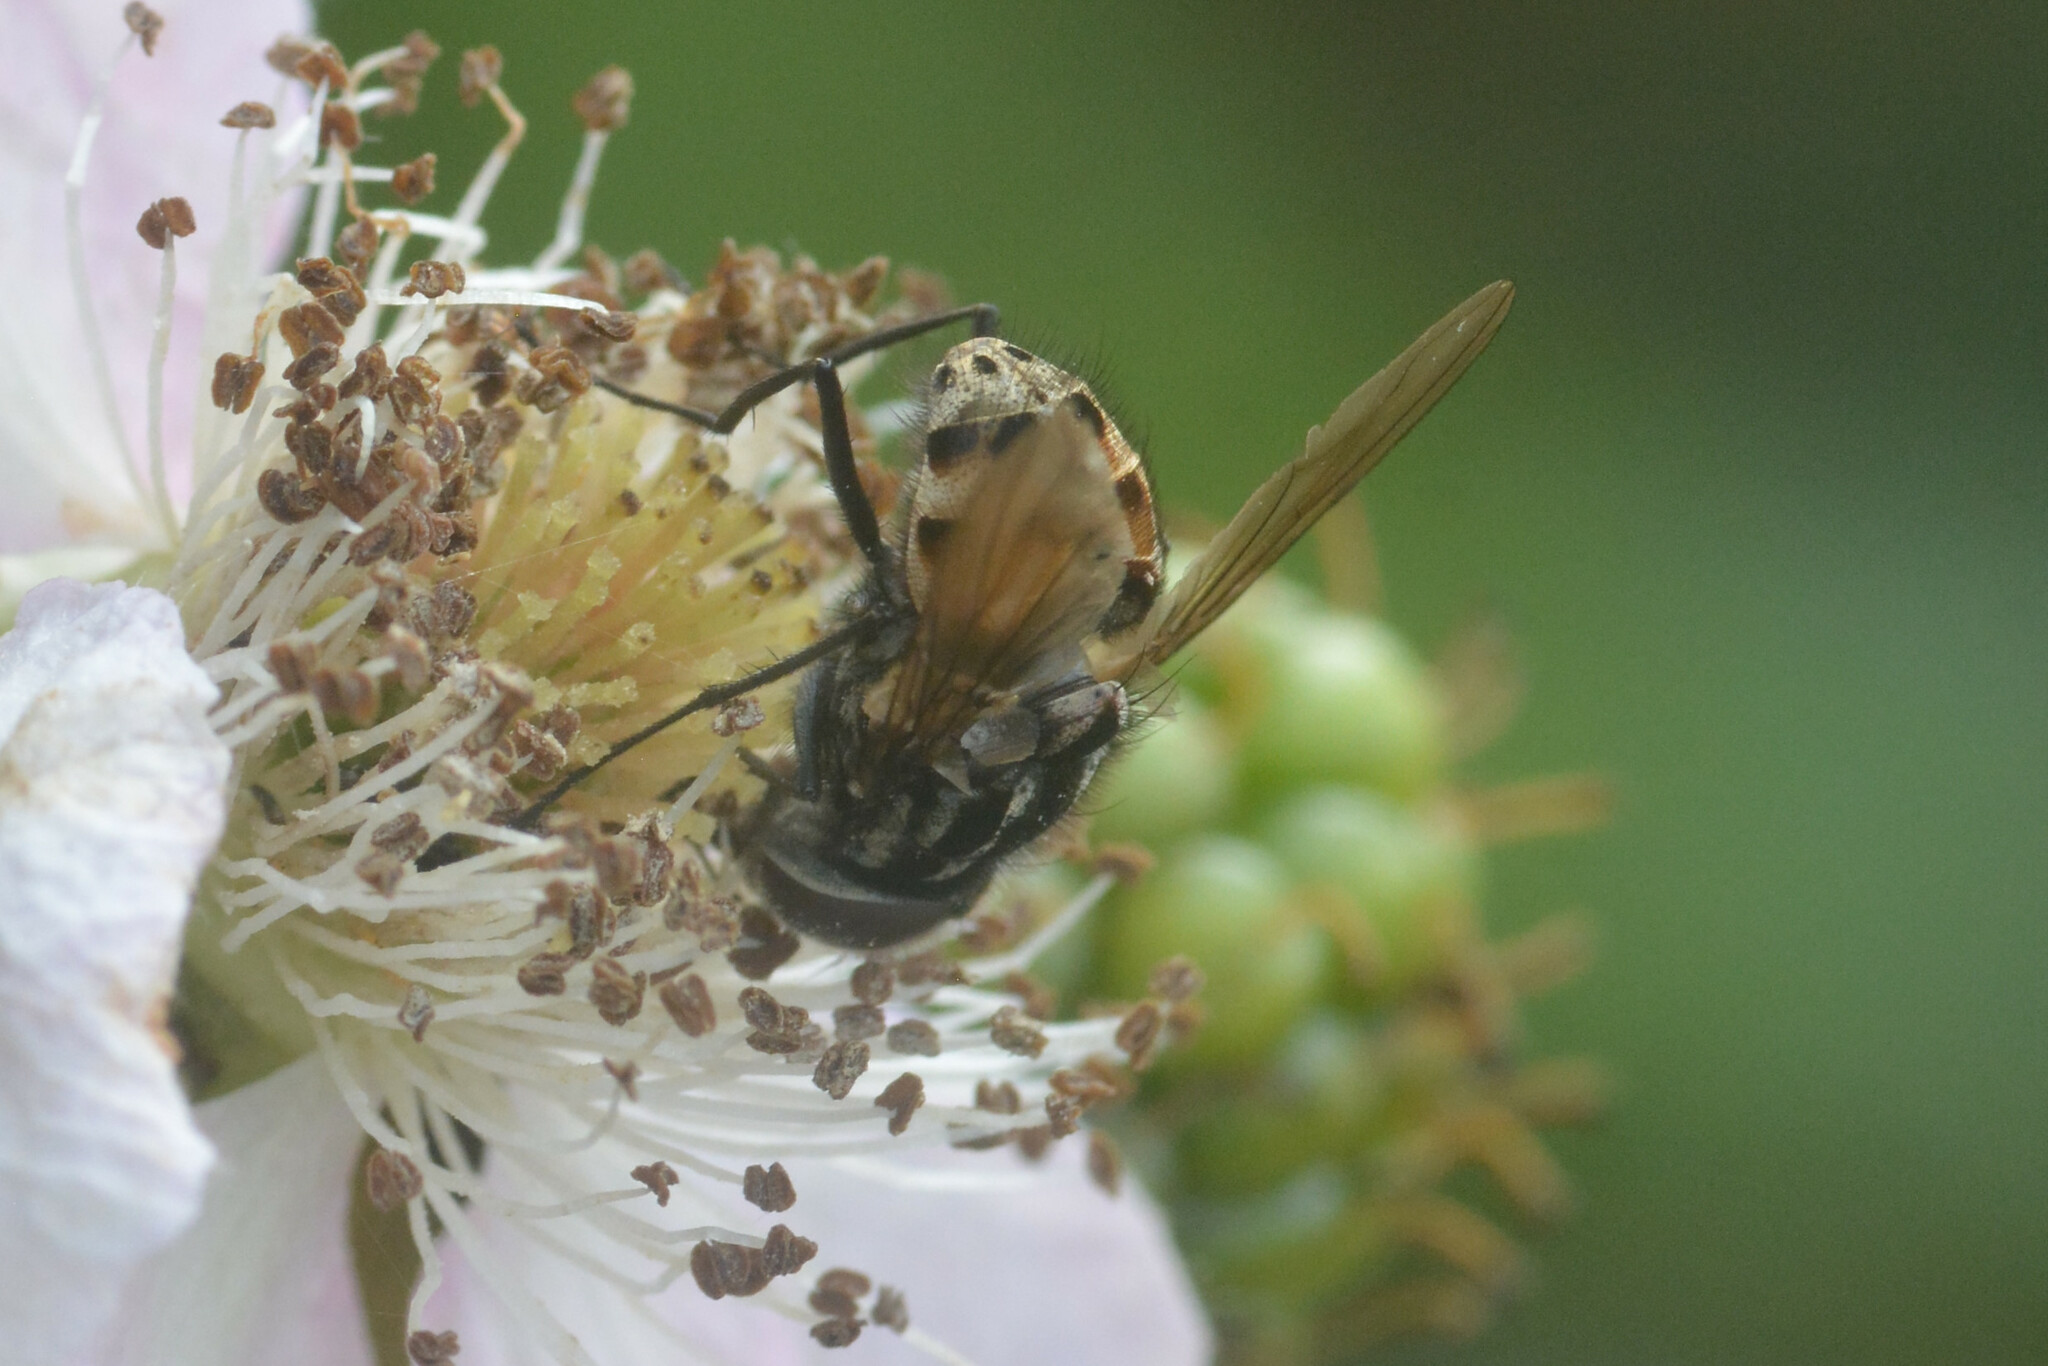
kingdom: Animalia
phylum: Arthropoda
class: Insecta
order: Diptera
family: Muscidae
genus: Graphomya
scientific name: Graphomya maculata
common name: Muscid fly
